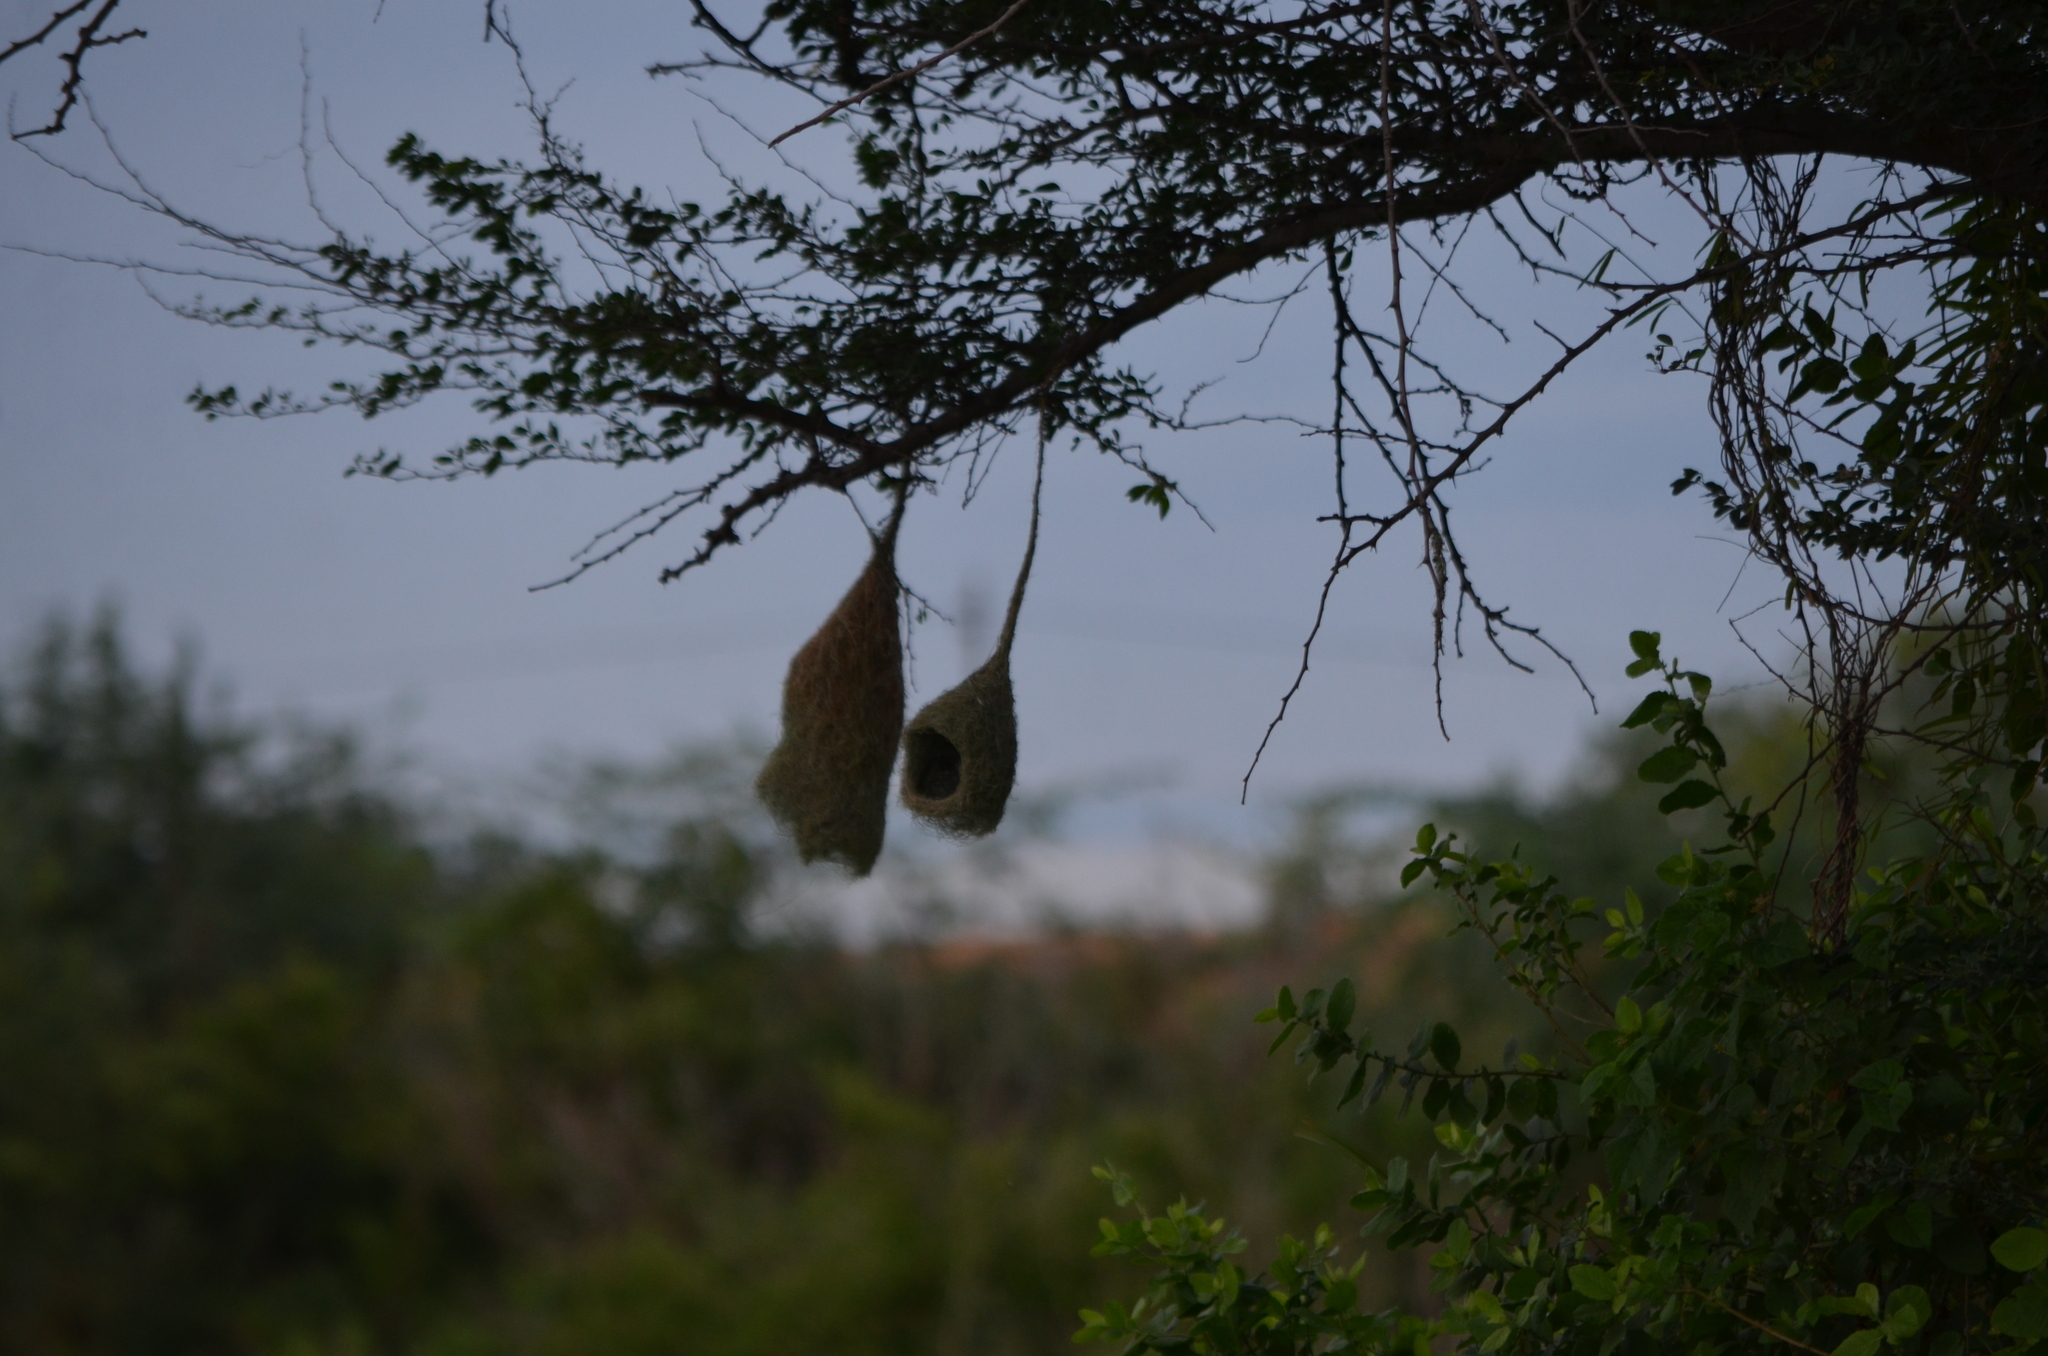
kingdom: Animalia
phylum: Chordata
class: Aves
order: Passeriformes
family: Ploceidae
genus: Ploceus
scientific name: Ploceus philippinus
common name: Baya weaver
